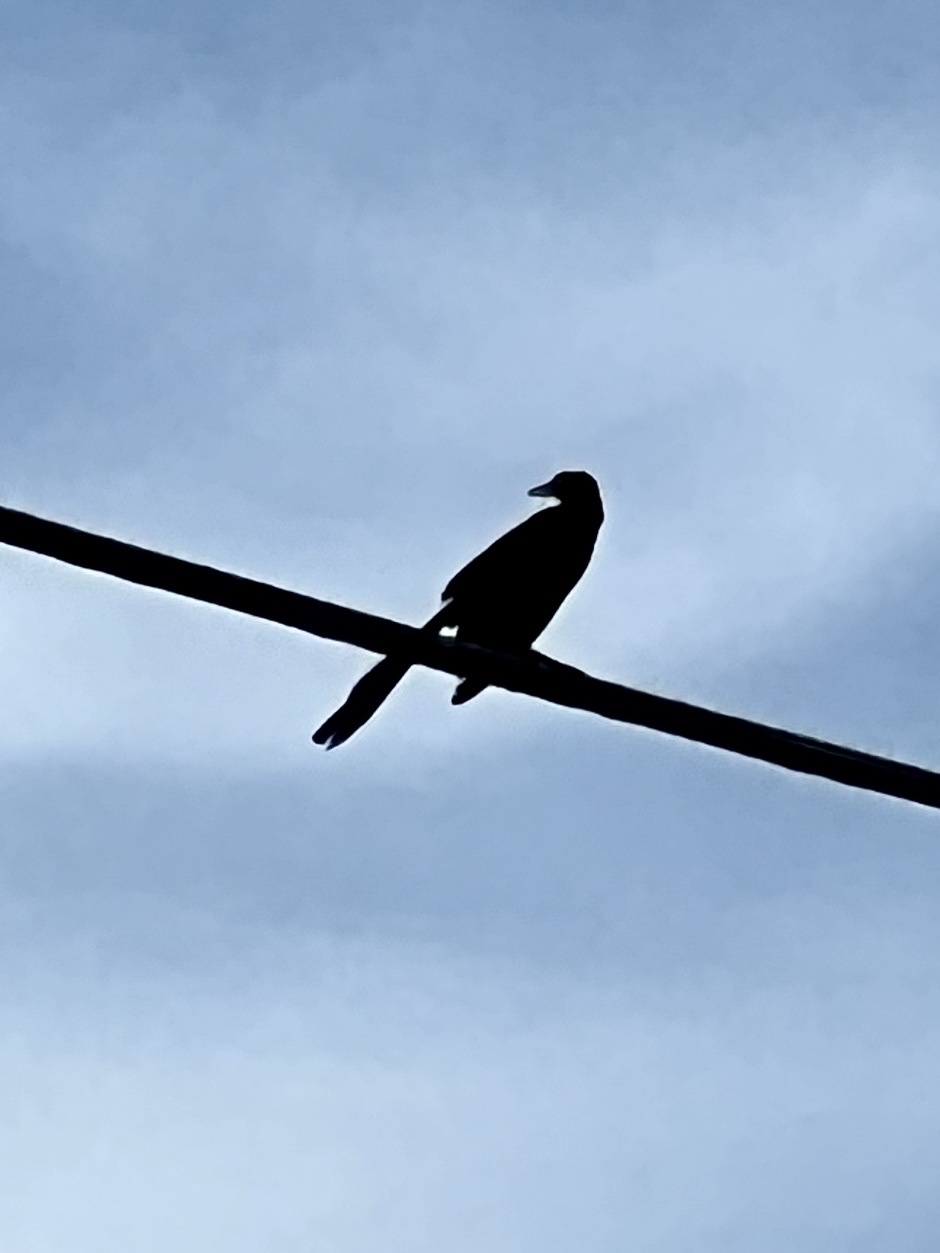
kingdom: Animalia
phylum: Chordata
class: Aves
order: Passeriformes
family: Icteridae
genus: Quiscalus
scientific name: Quiscalus mexicanus
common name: Great-tailed grackle
